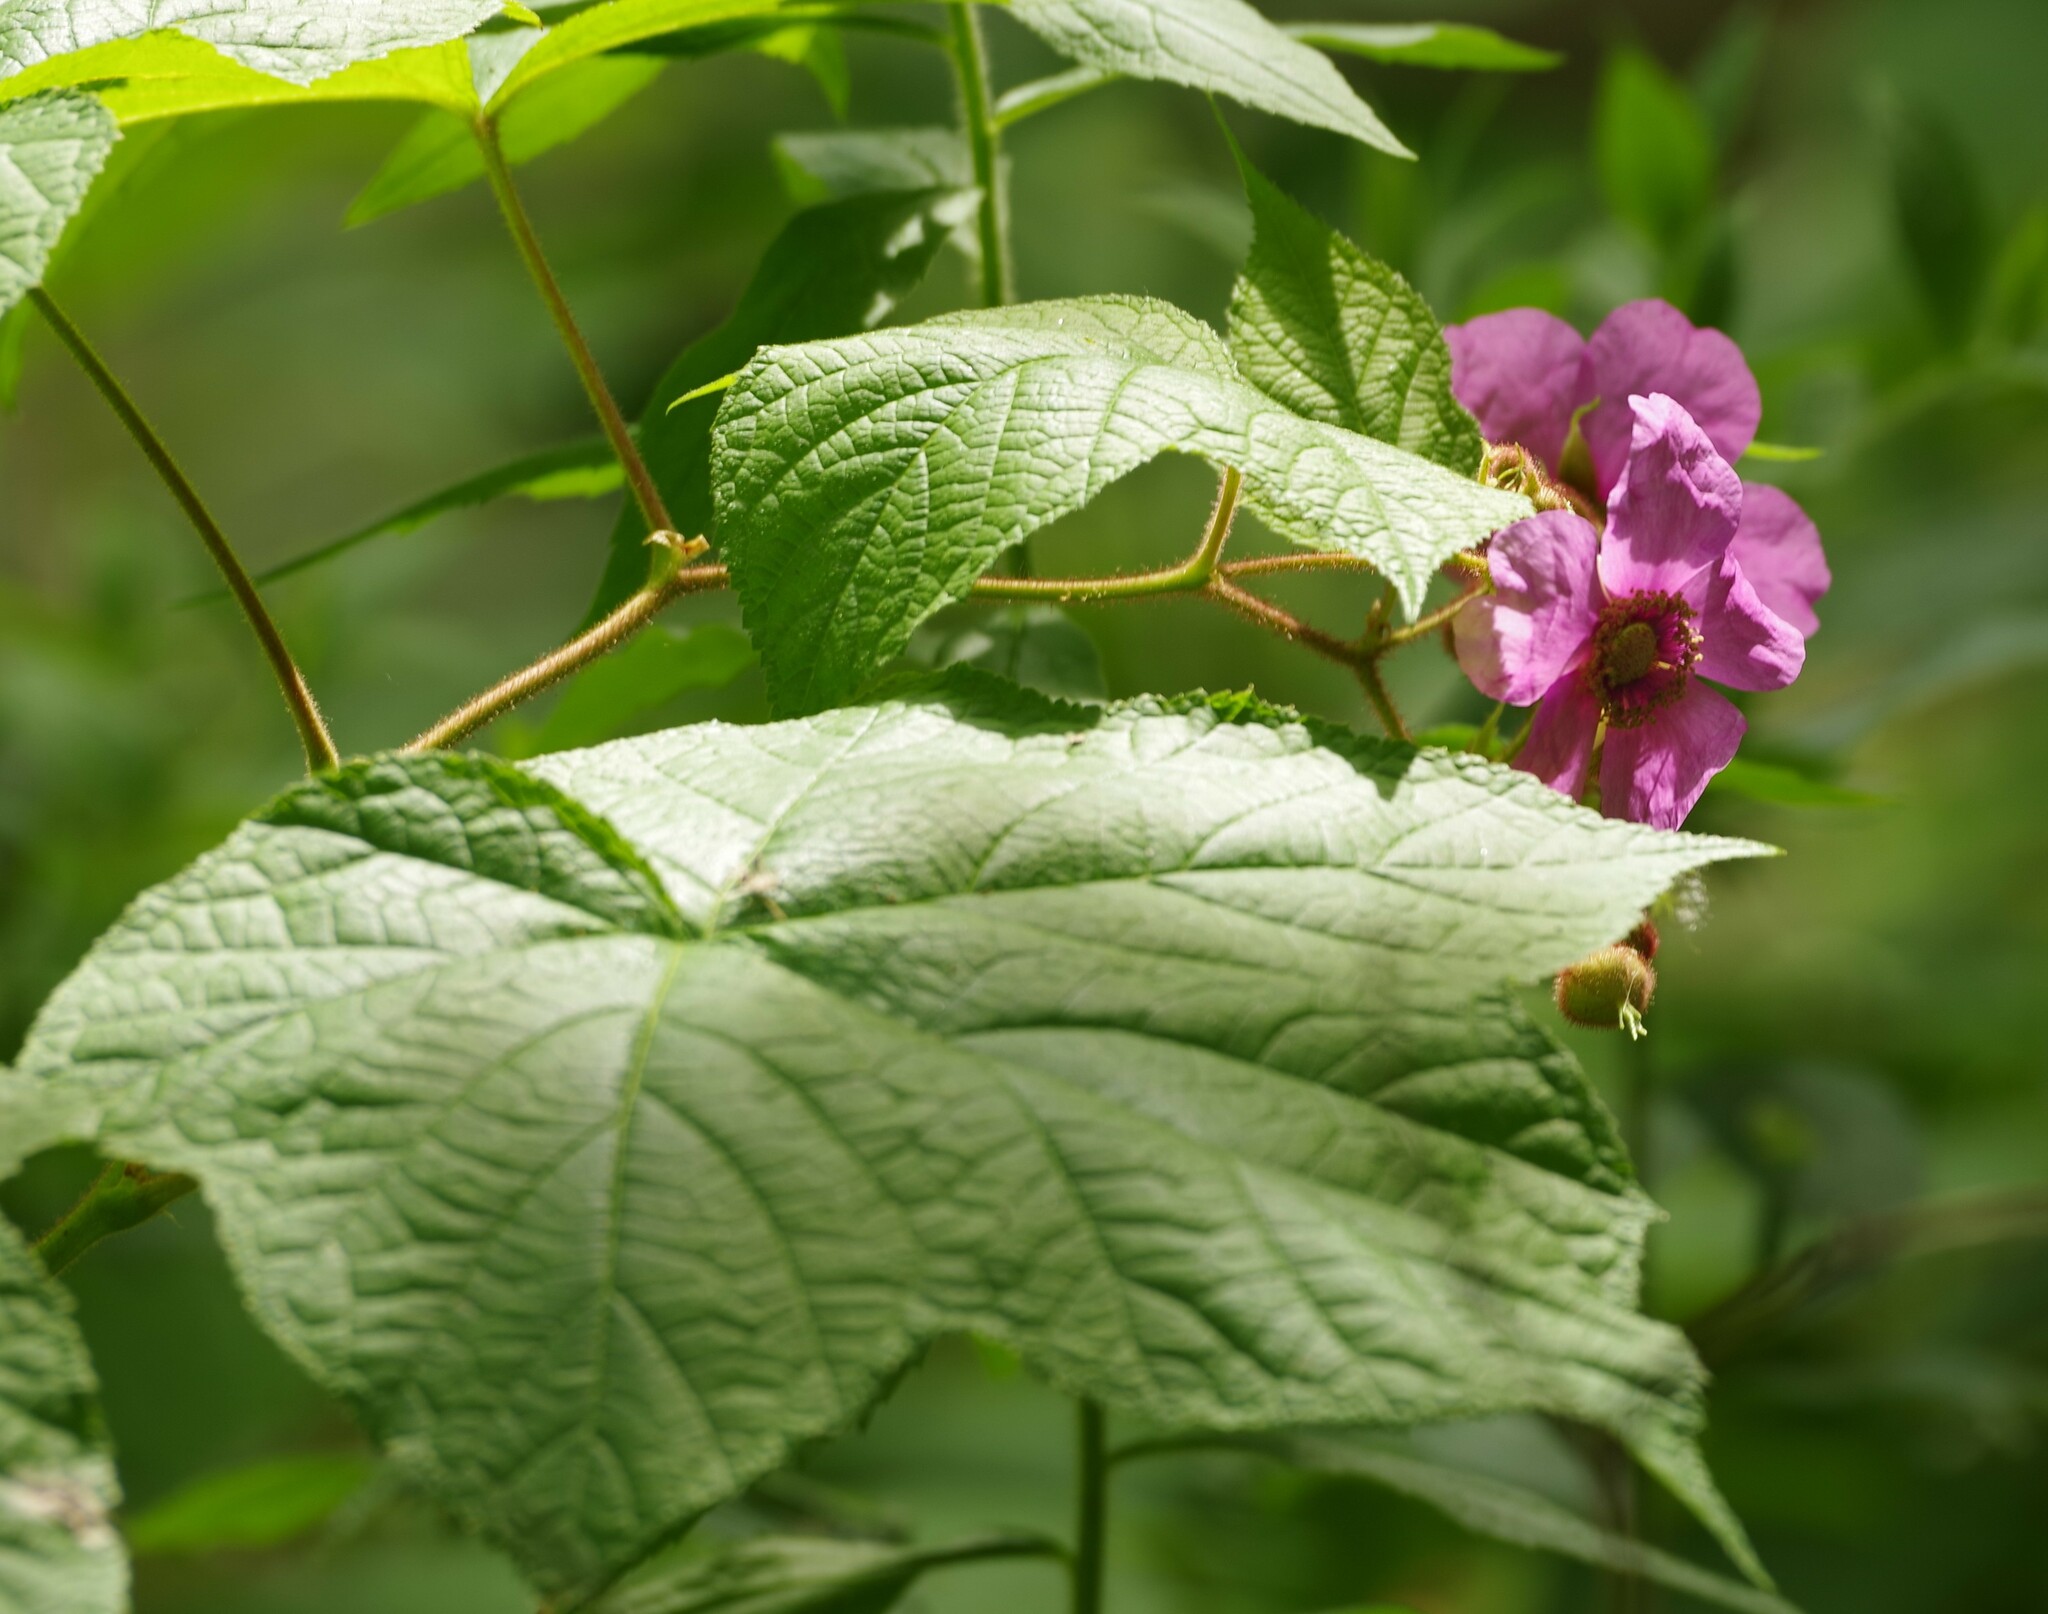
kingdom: Plantae
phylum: Tracheophyta
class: Magnoliopsida
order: Rosales
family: Rosaceae
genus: Rubus
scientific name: Rubus odoratus
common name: Purple-flowered raspberry
